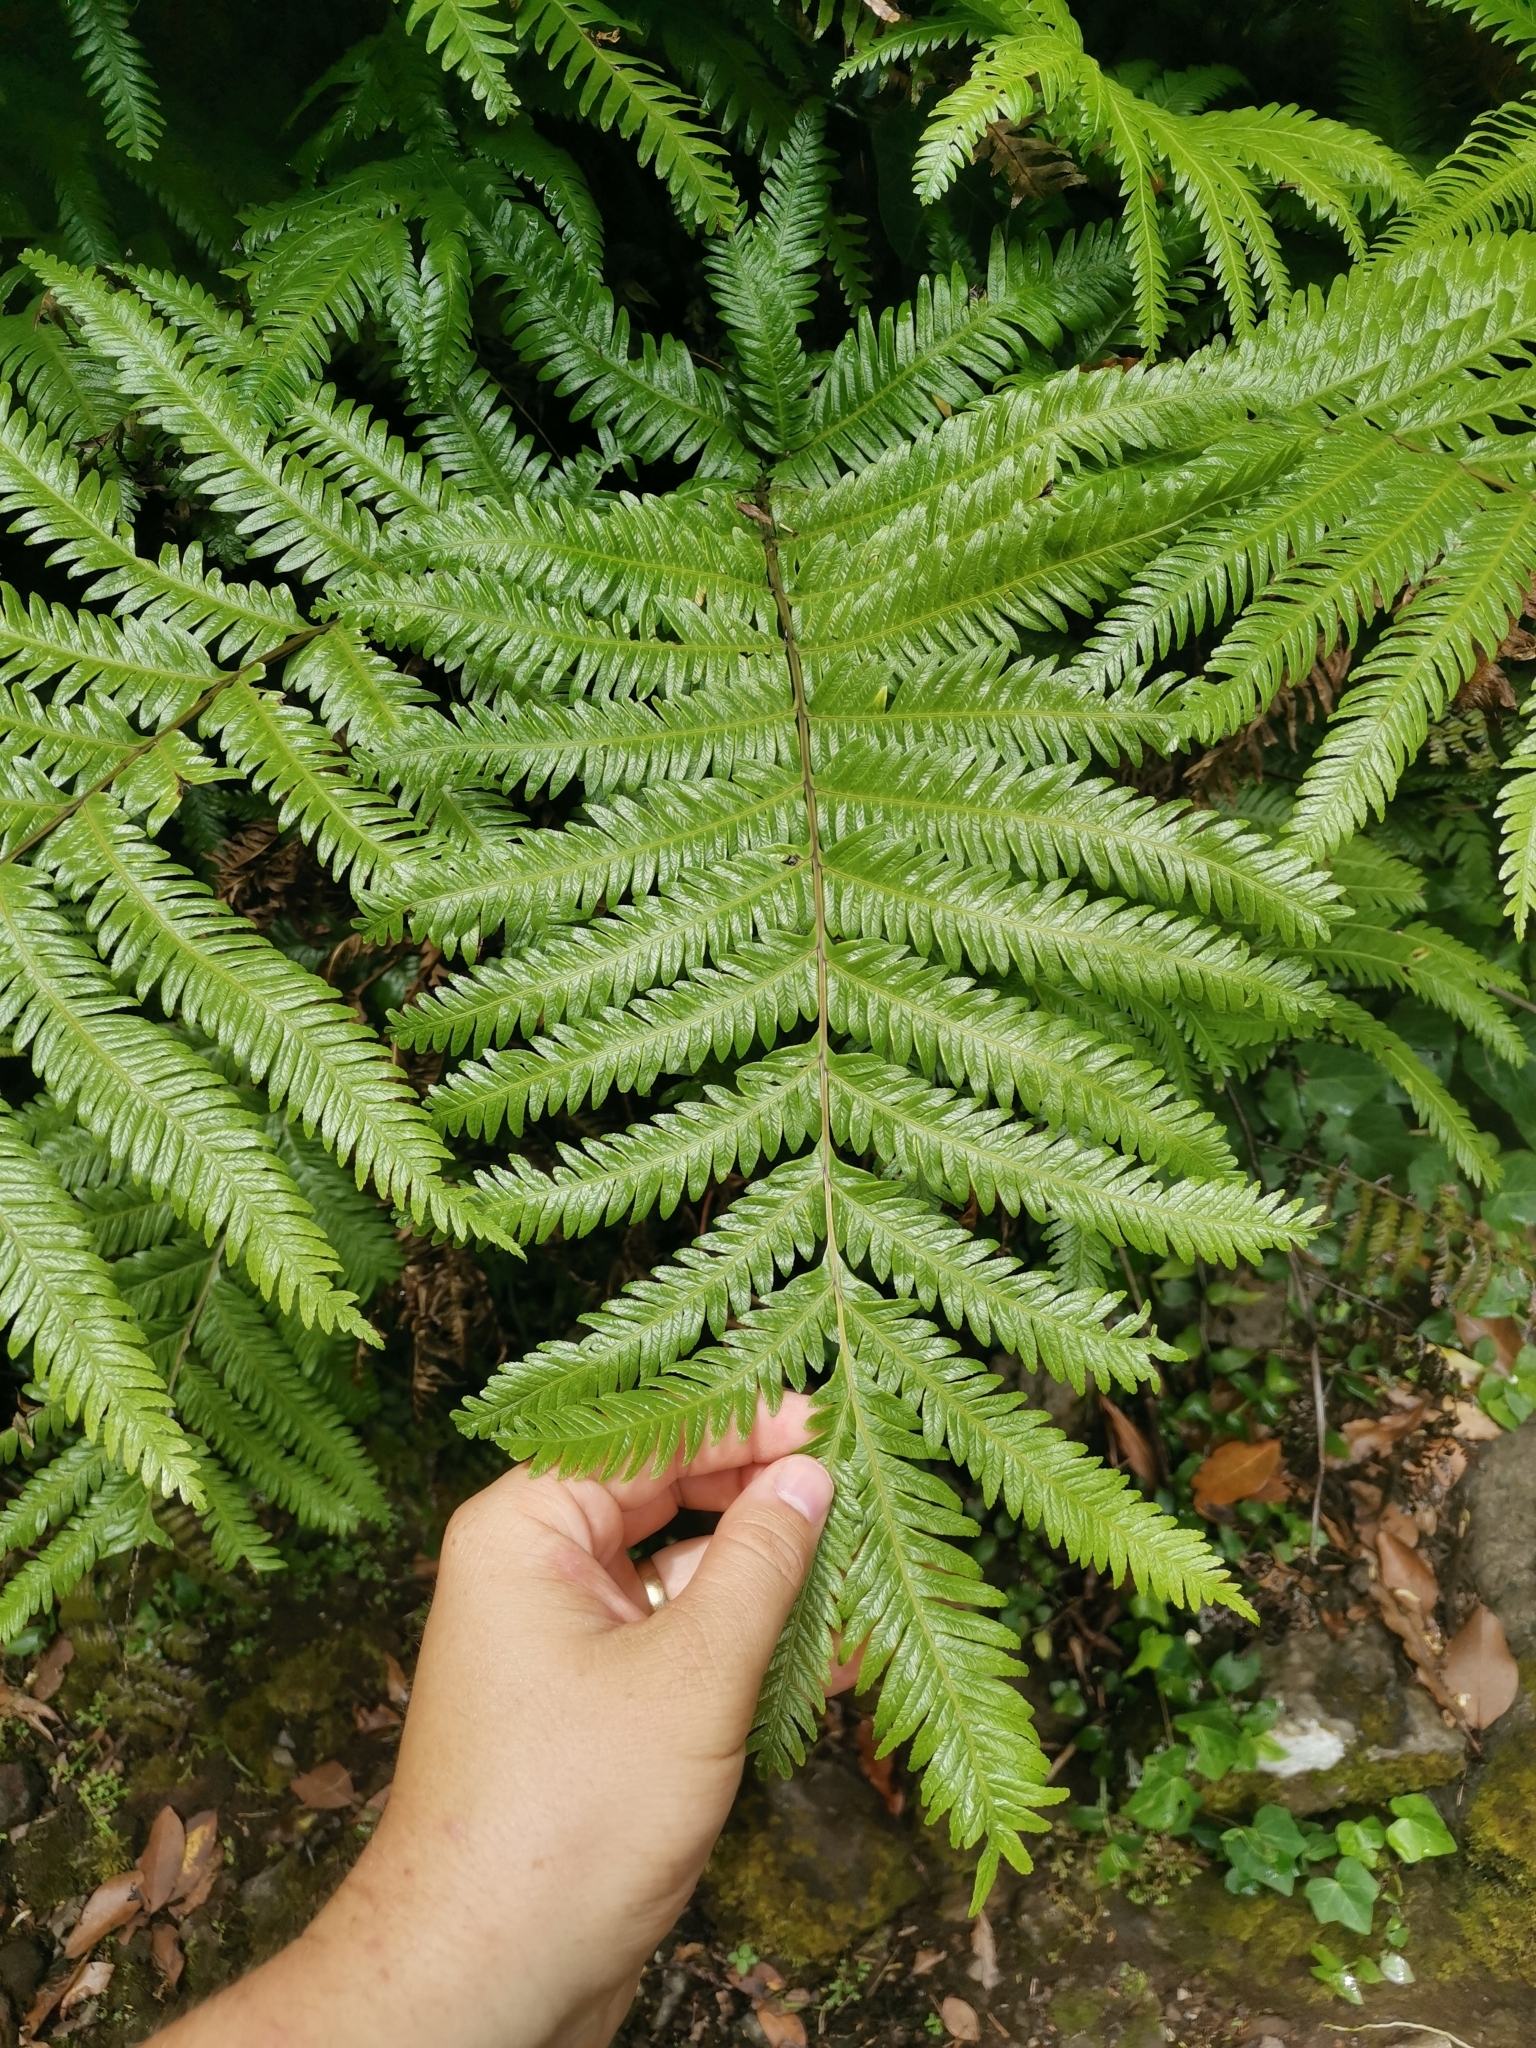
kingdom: Plantae
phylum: Tracheophyta
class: Polypodiopsida
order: Polypodiales
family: Pteridaceae
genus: Pteris
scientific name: Pteris incompleta
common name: Laurisilva brake
